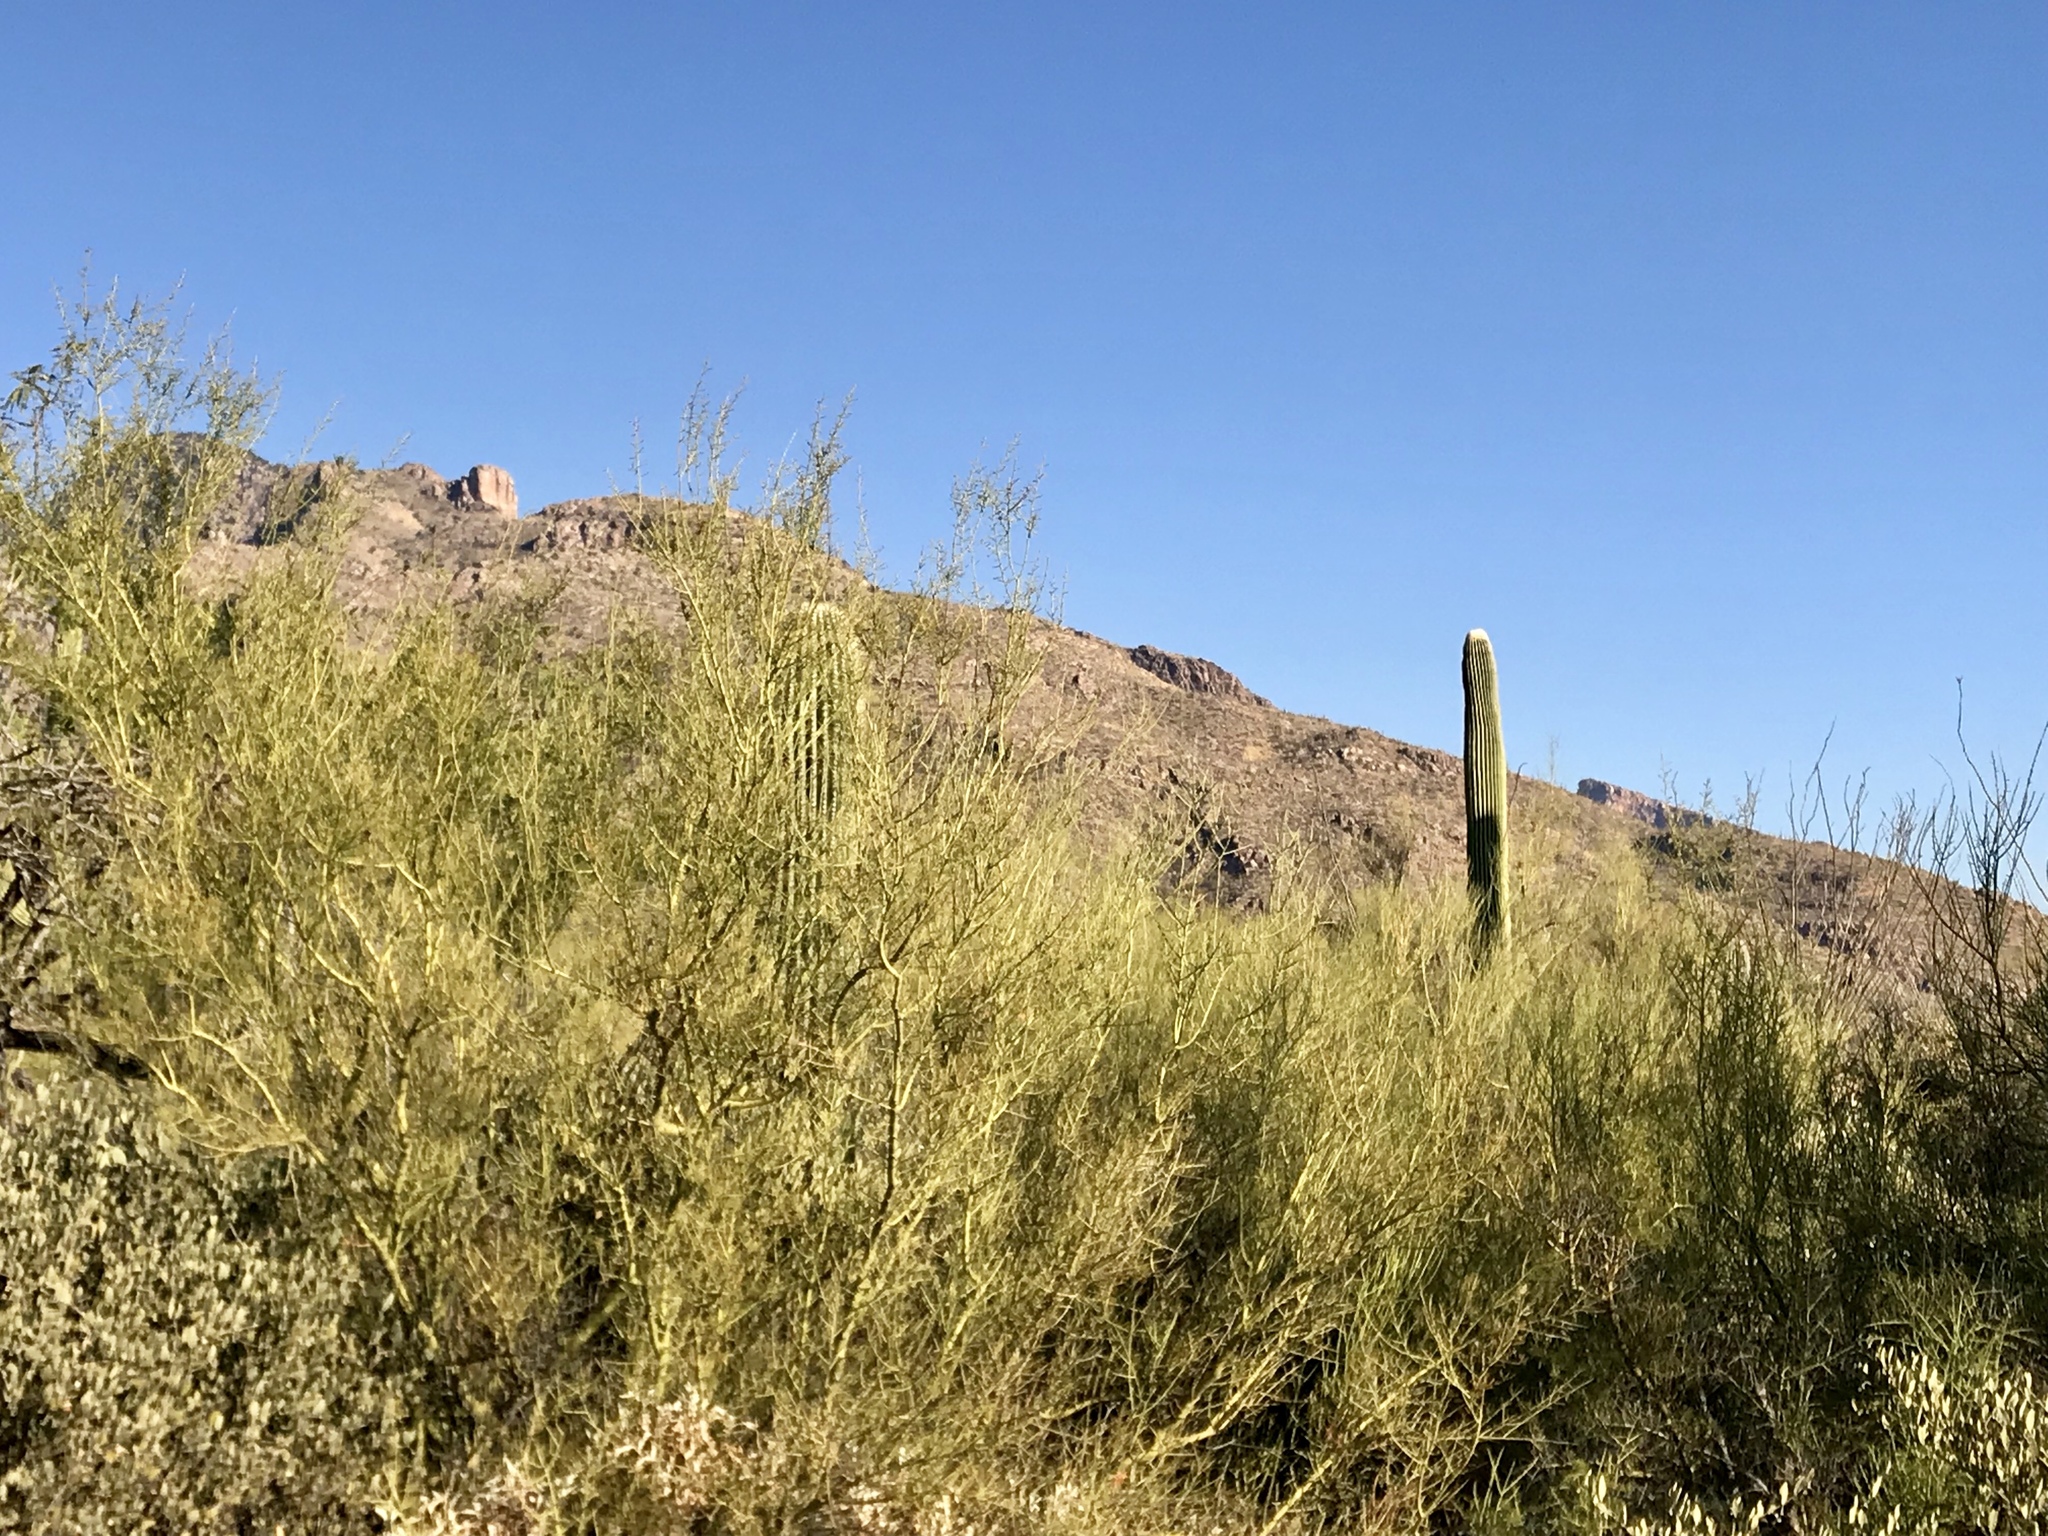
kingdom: Plantae
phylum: Tracheophyta
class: Magnoliopsida
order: Fabales
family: Fabaceae
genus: Parkinsonia
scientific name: Parkinsonia microphylla
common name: Yellow paloverde
